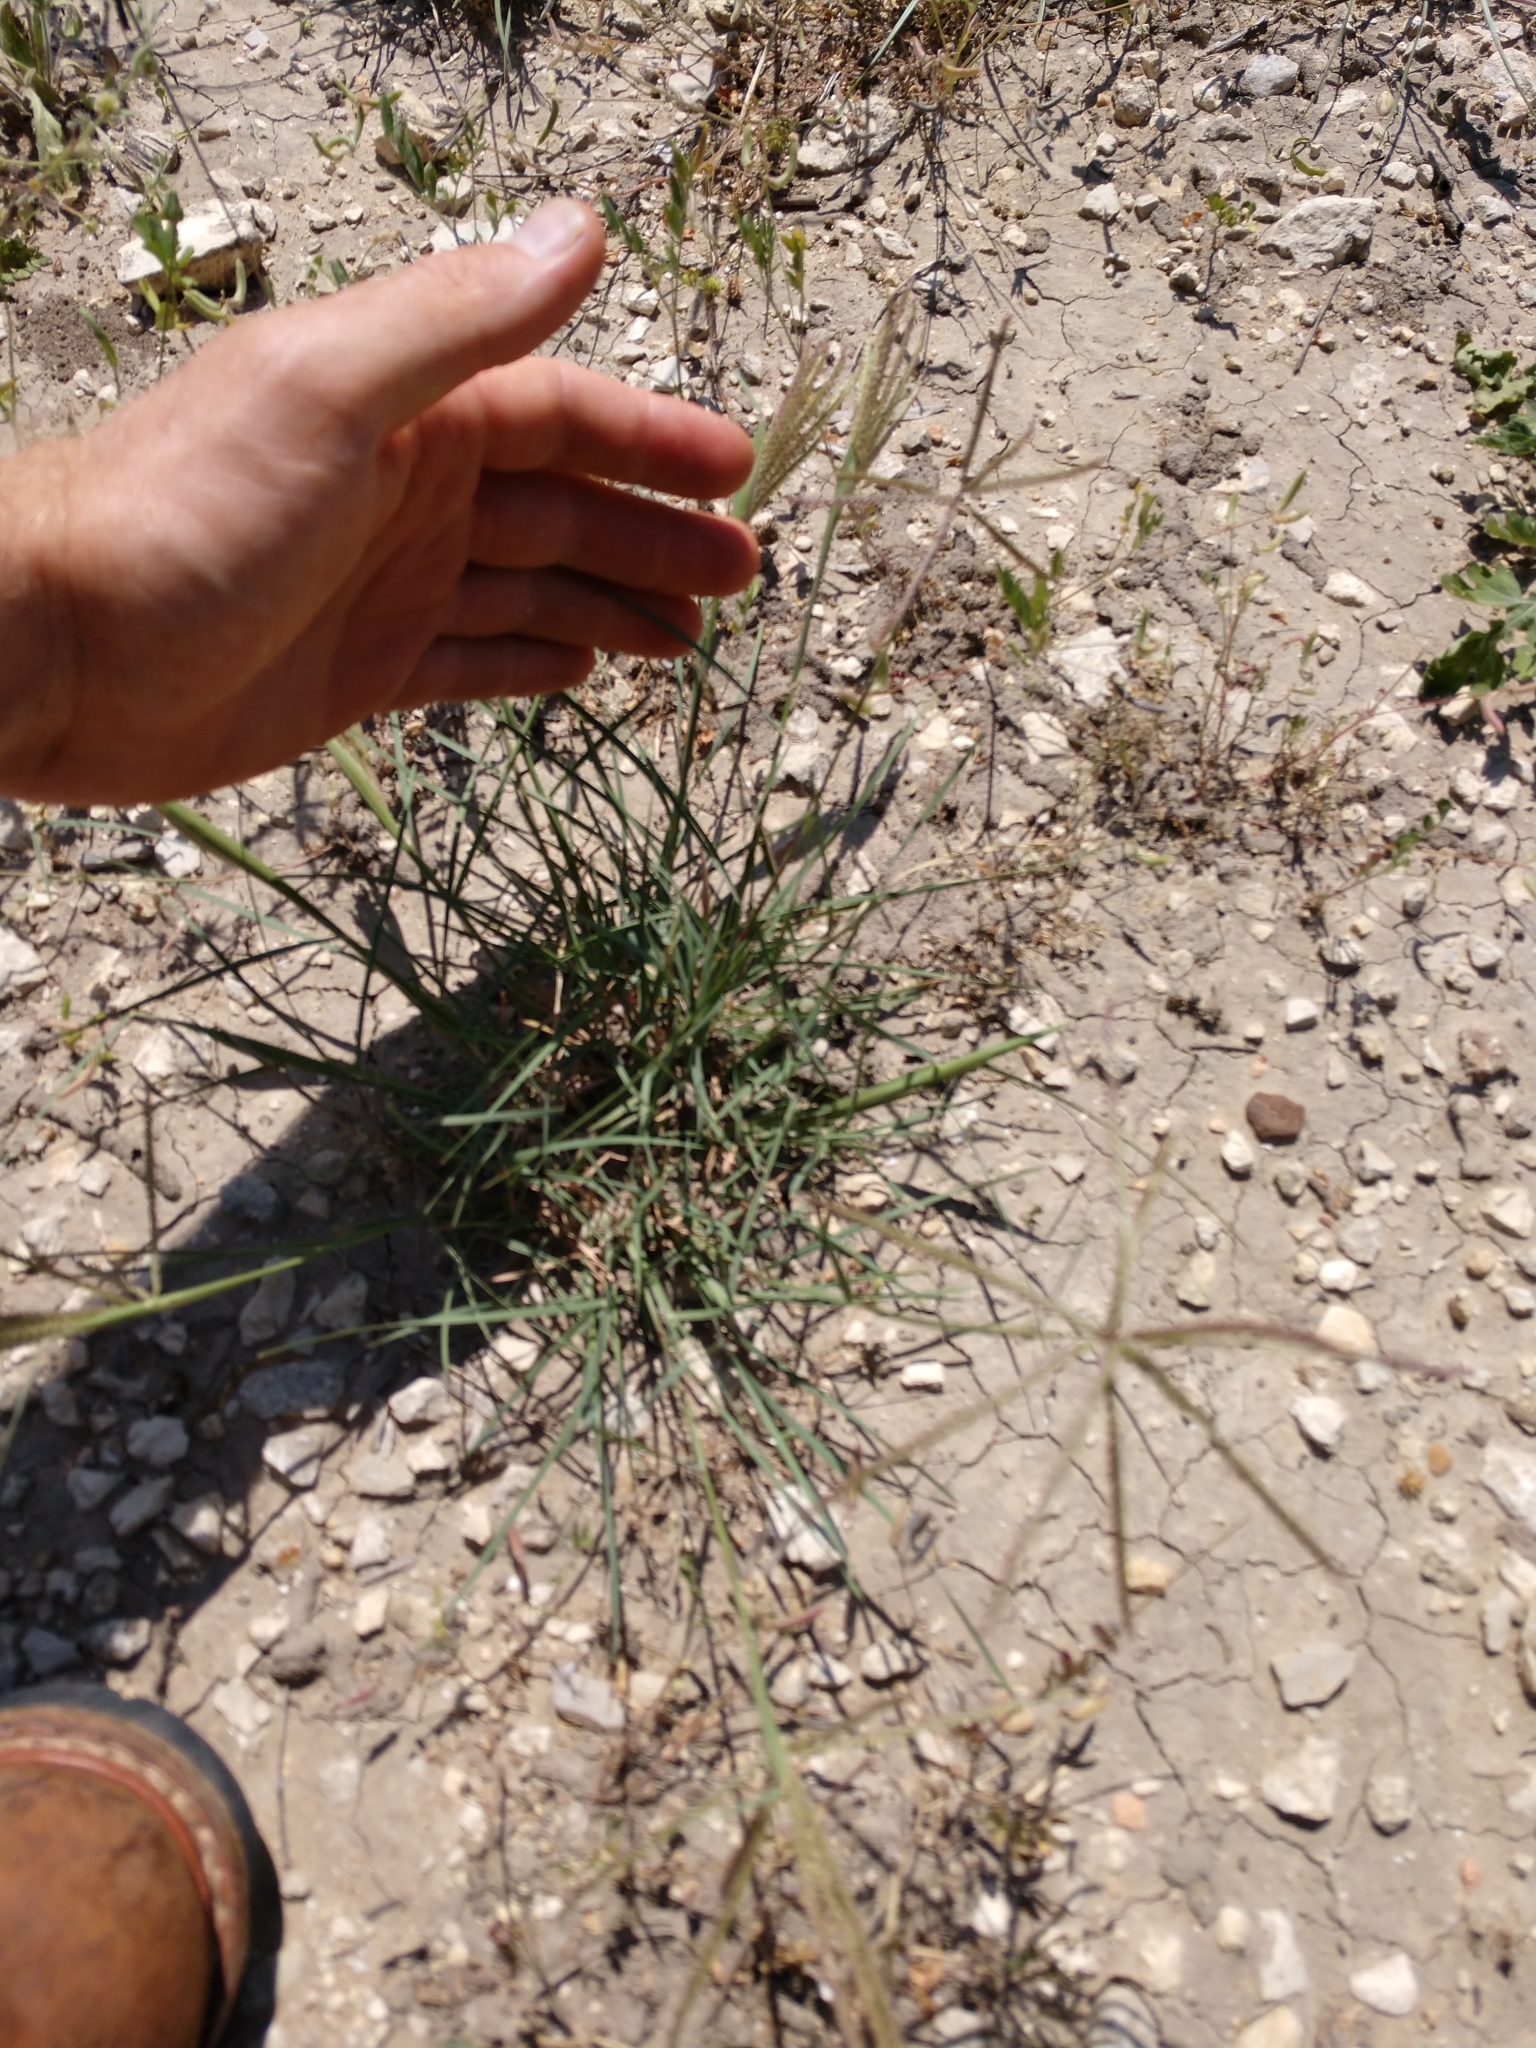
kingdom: Plantae
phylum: Tracheophyta
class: Liliopsida
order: Poales
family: Poaceae
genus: Chloris
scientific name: Chloris subdolichostachya
